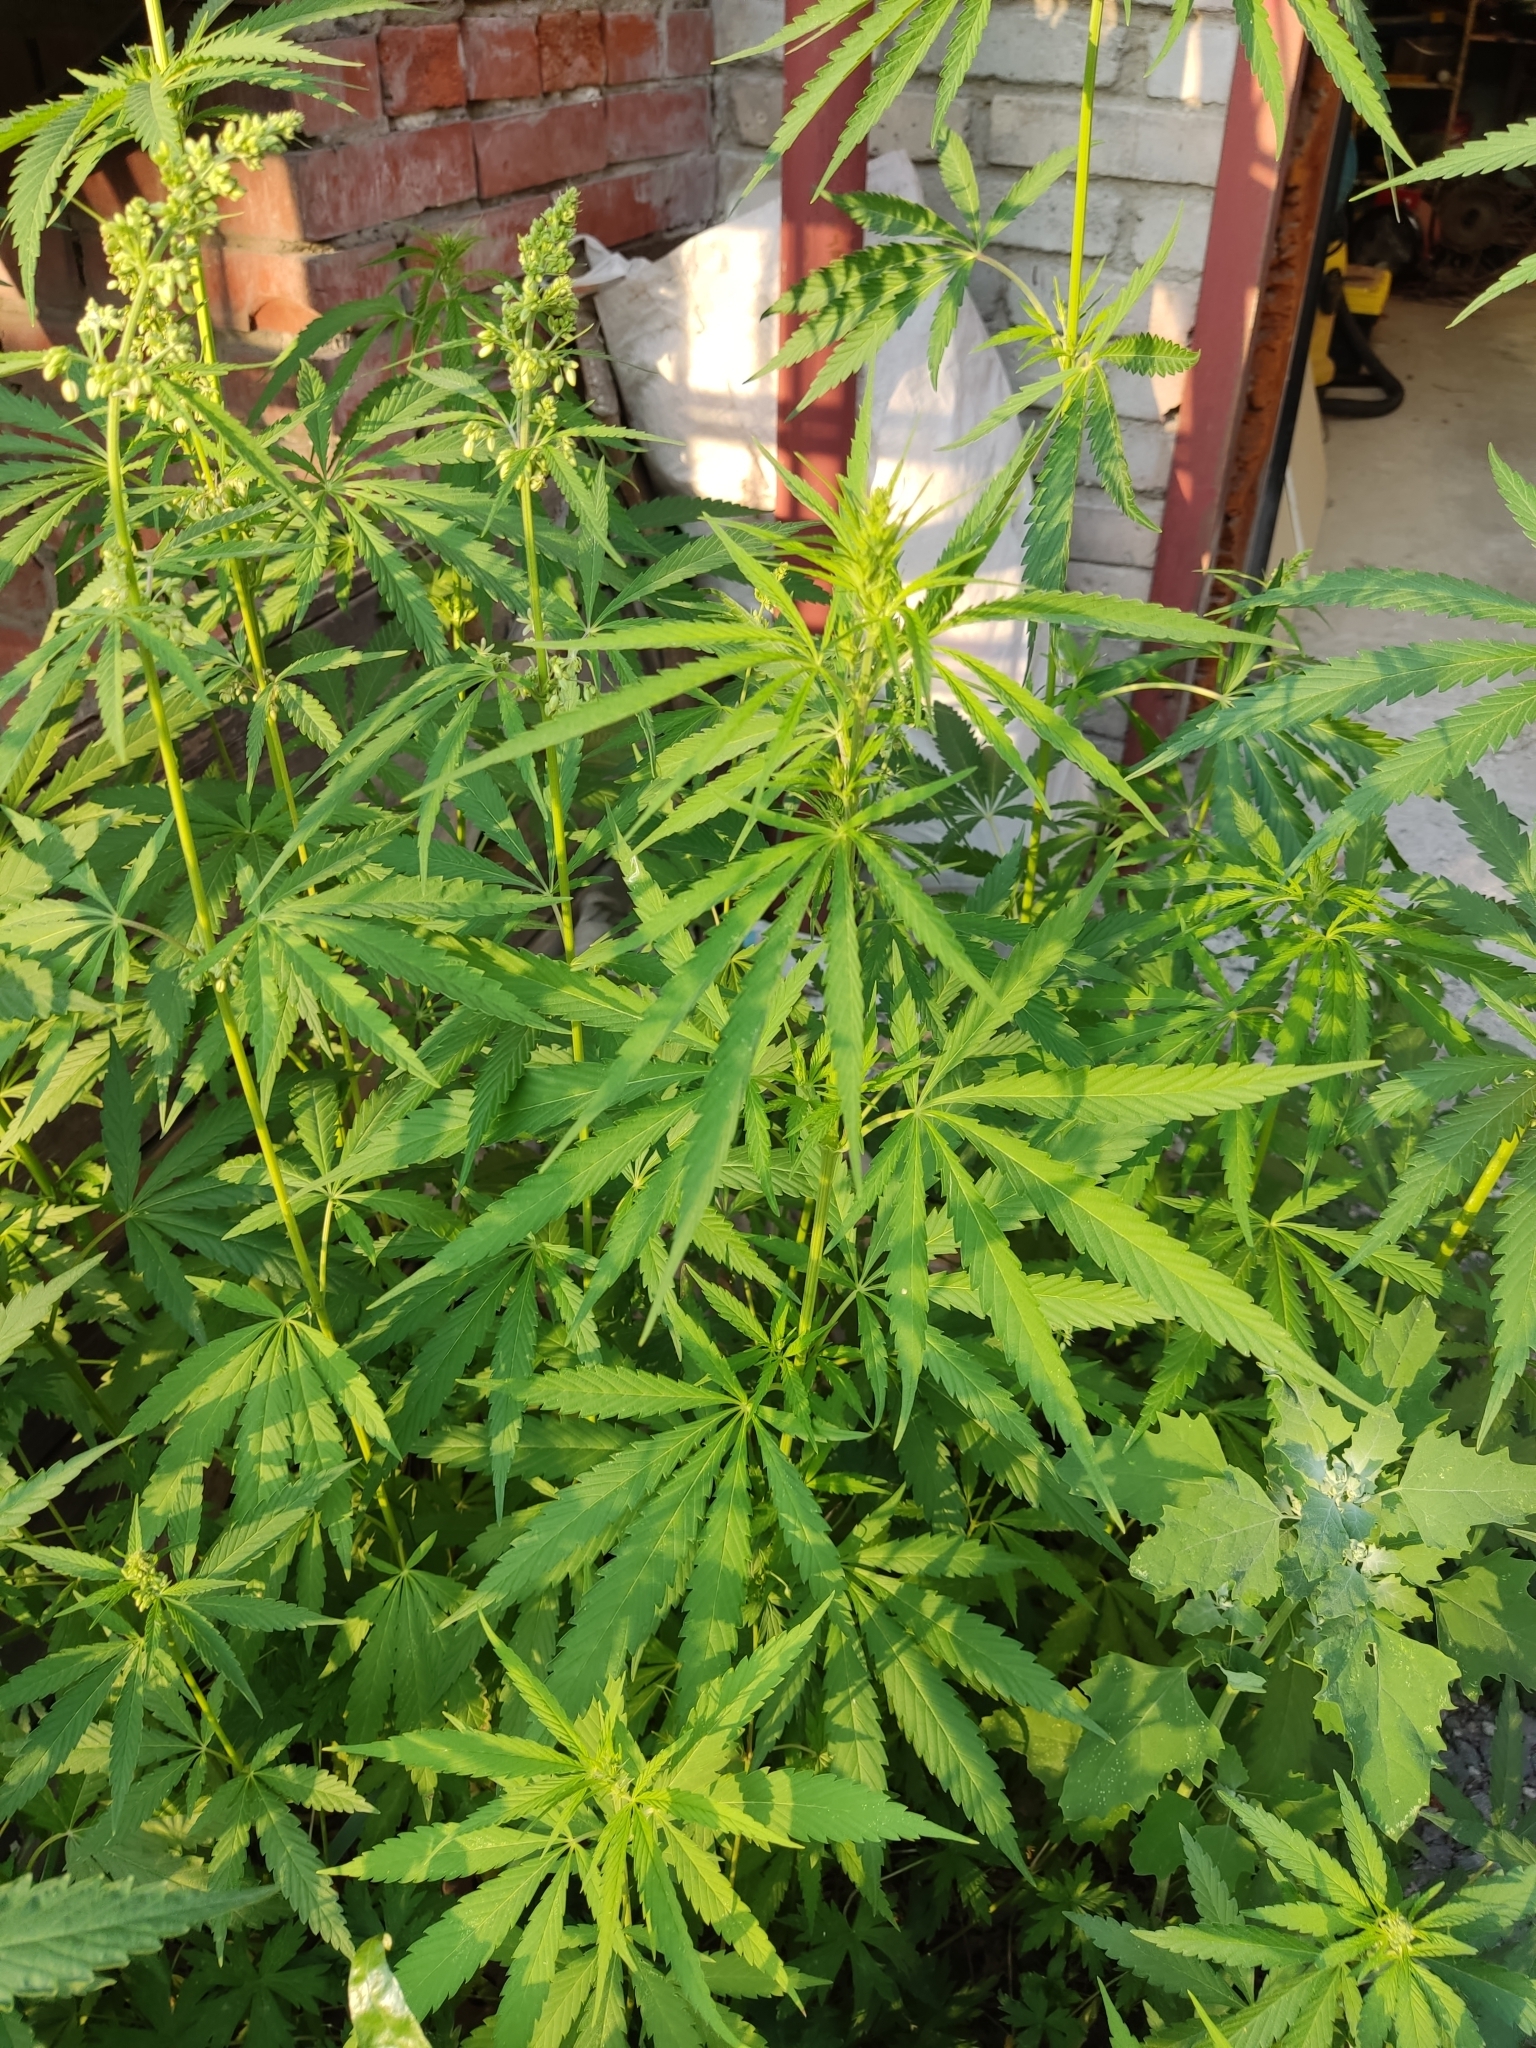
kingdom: Plantae
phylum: Tracheophyta
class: Magnoliopsida
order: Rosales
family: Cannabaceae
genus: Cannabis
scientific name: Cannabis sativa
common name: Hemp
